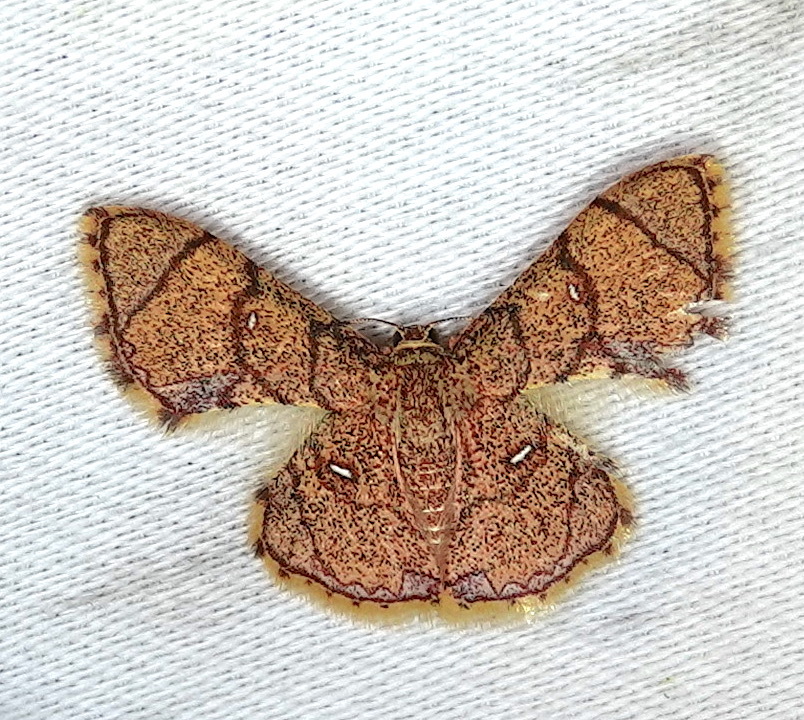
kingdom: Animalia
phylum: Arthropoda
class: Insecta
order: Lepidoptera
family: Geometridae
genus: Hemipterodes
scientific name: Hemipterodes divaricata
